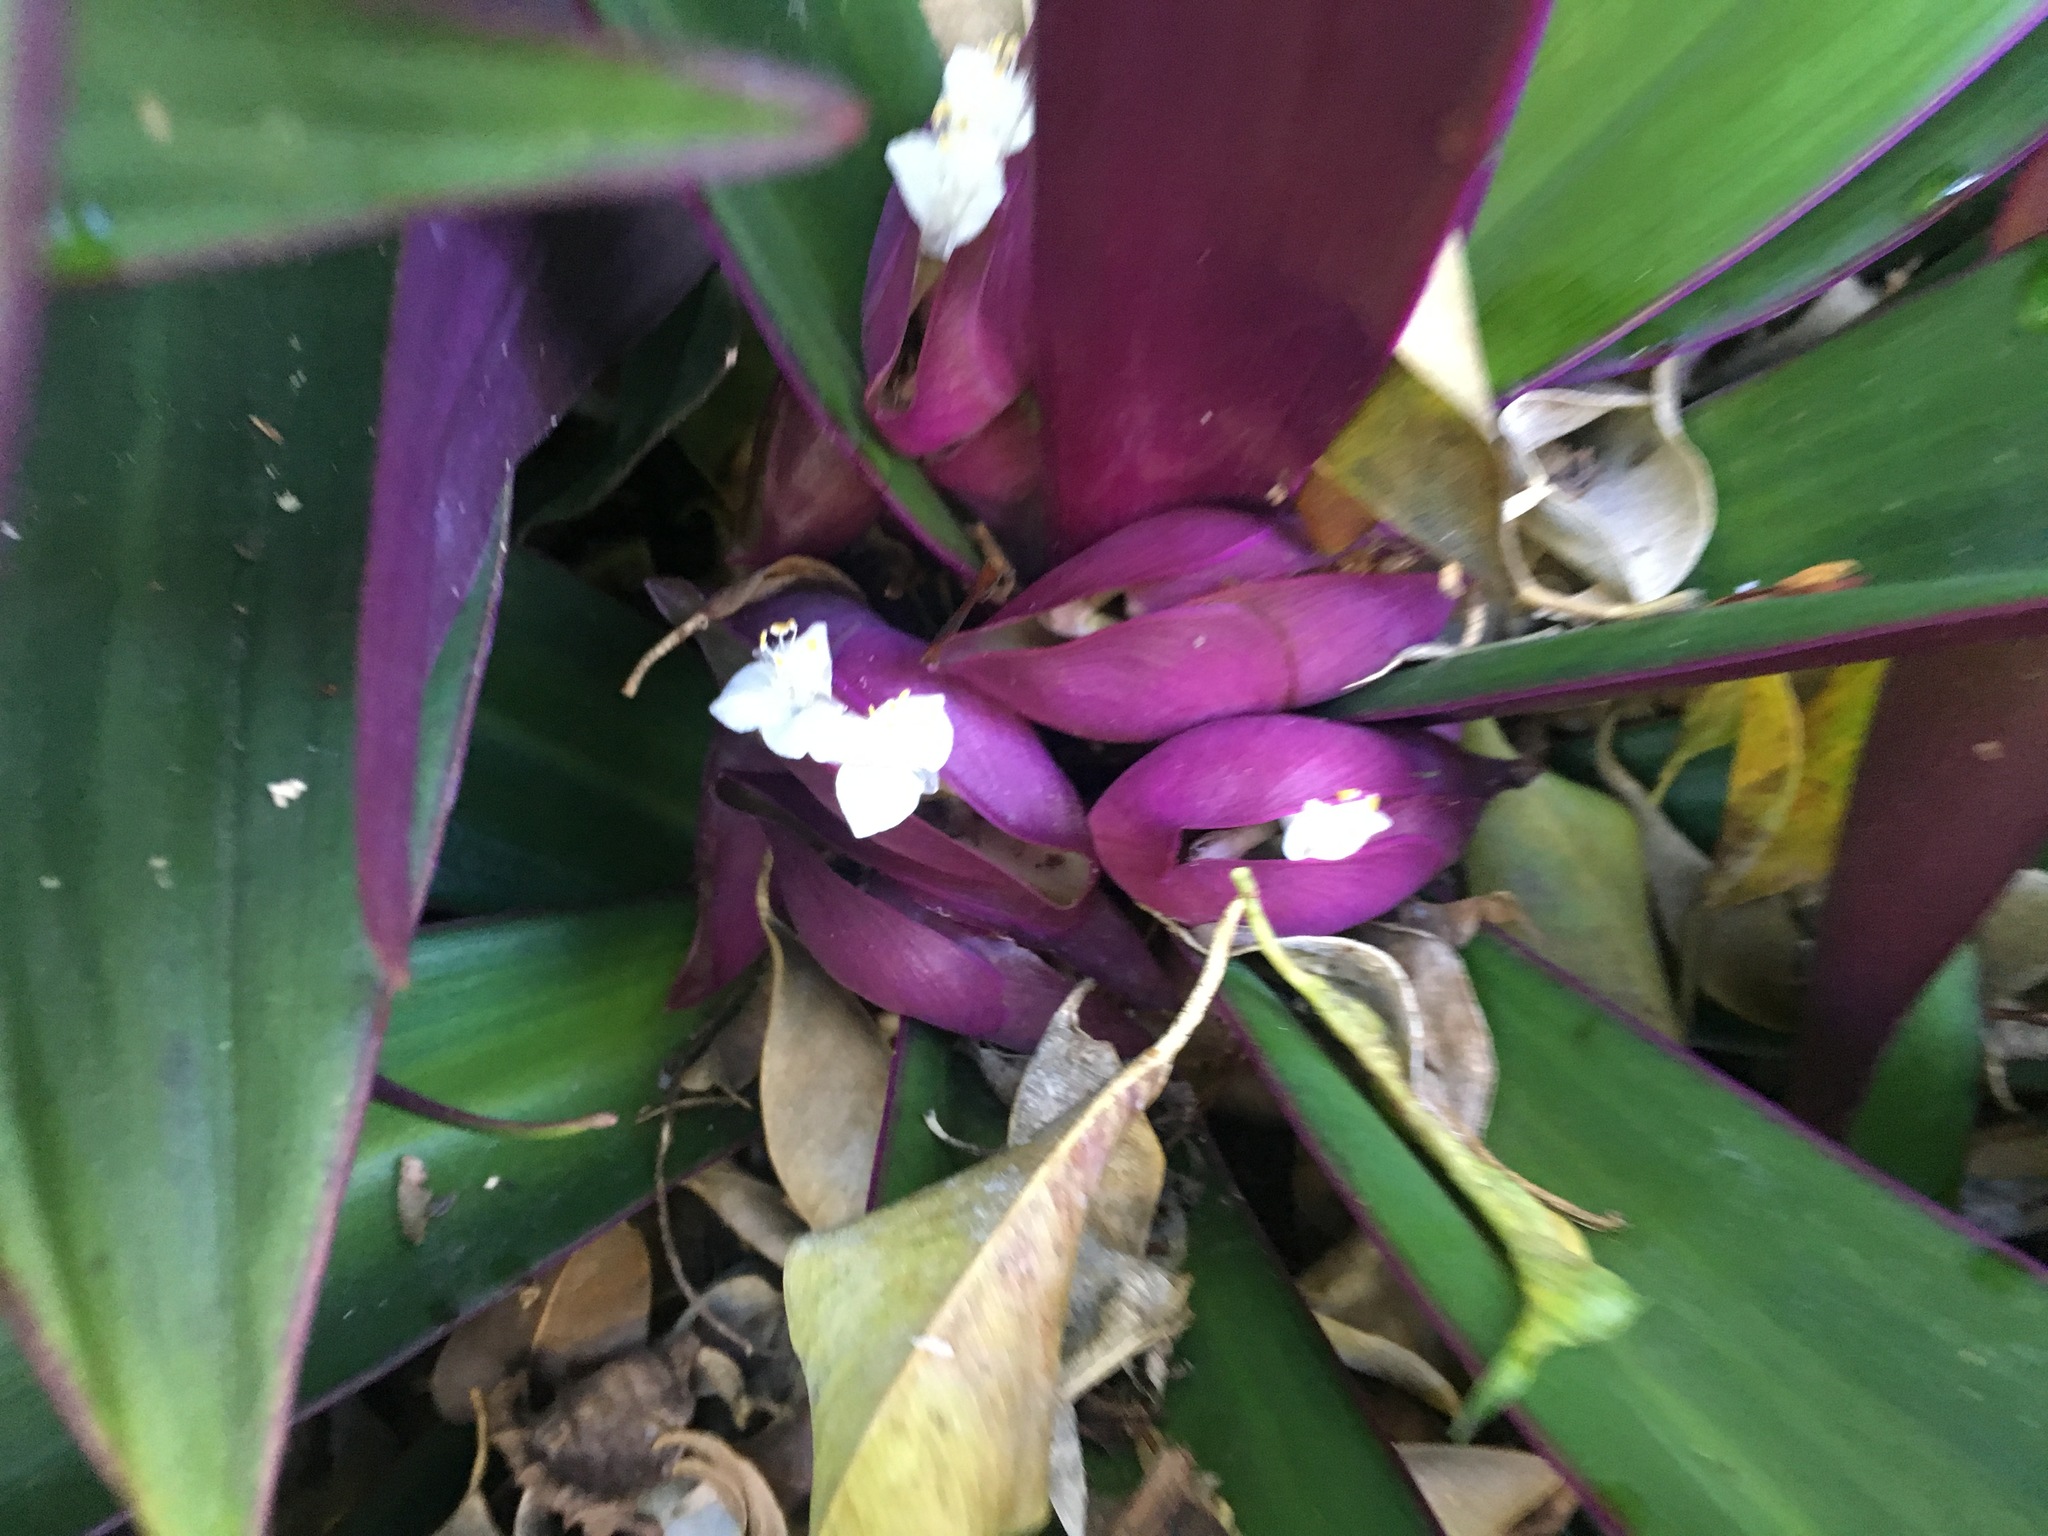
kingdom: Plantae
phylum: Tracheophyta
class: Liliopsida
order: Commelinales
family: Commelinaceae
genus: Tradescantia
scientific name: Tradescantia spathacea
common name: Boatlily
